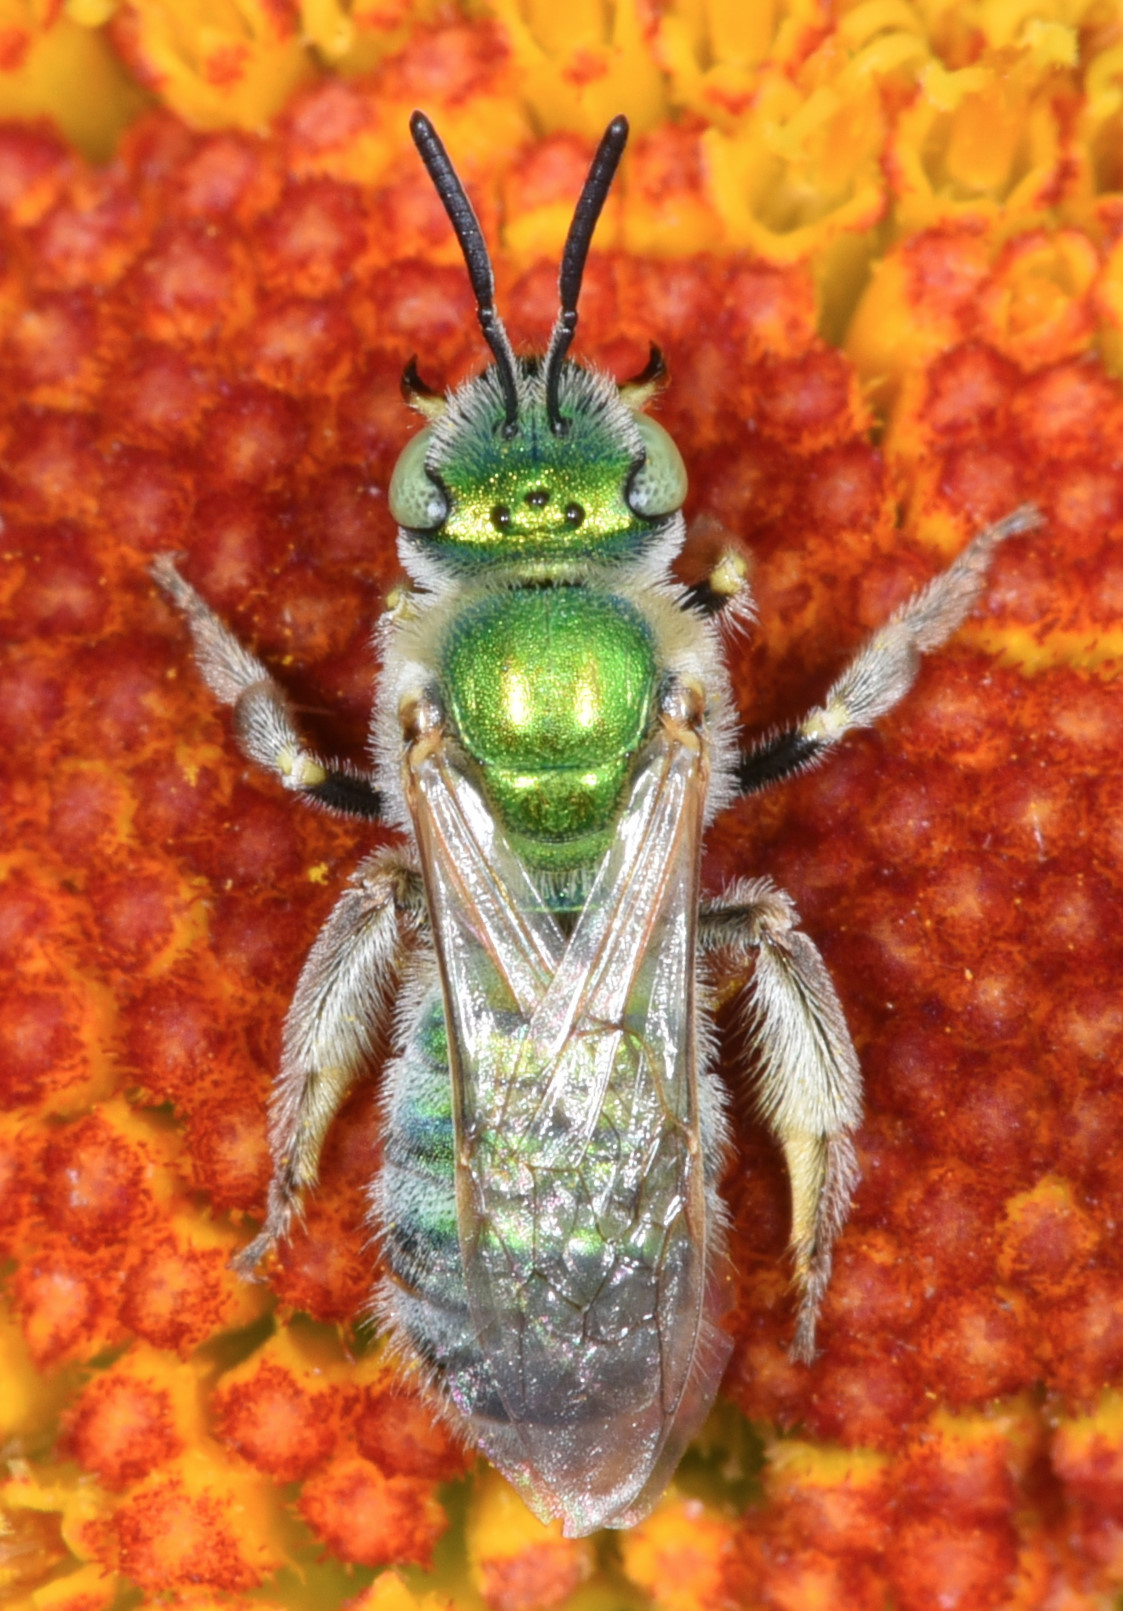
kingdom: Animalia
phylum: Arthropoda
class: Insecta
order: Hymenoptera
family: Halictidae
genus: Agapostemon
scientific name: Agapostemon angelicus
